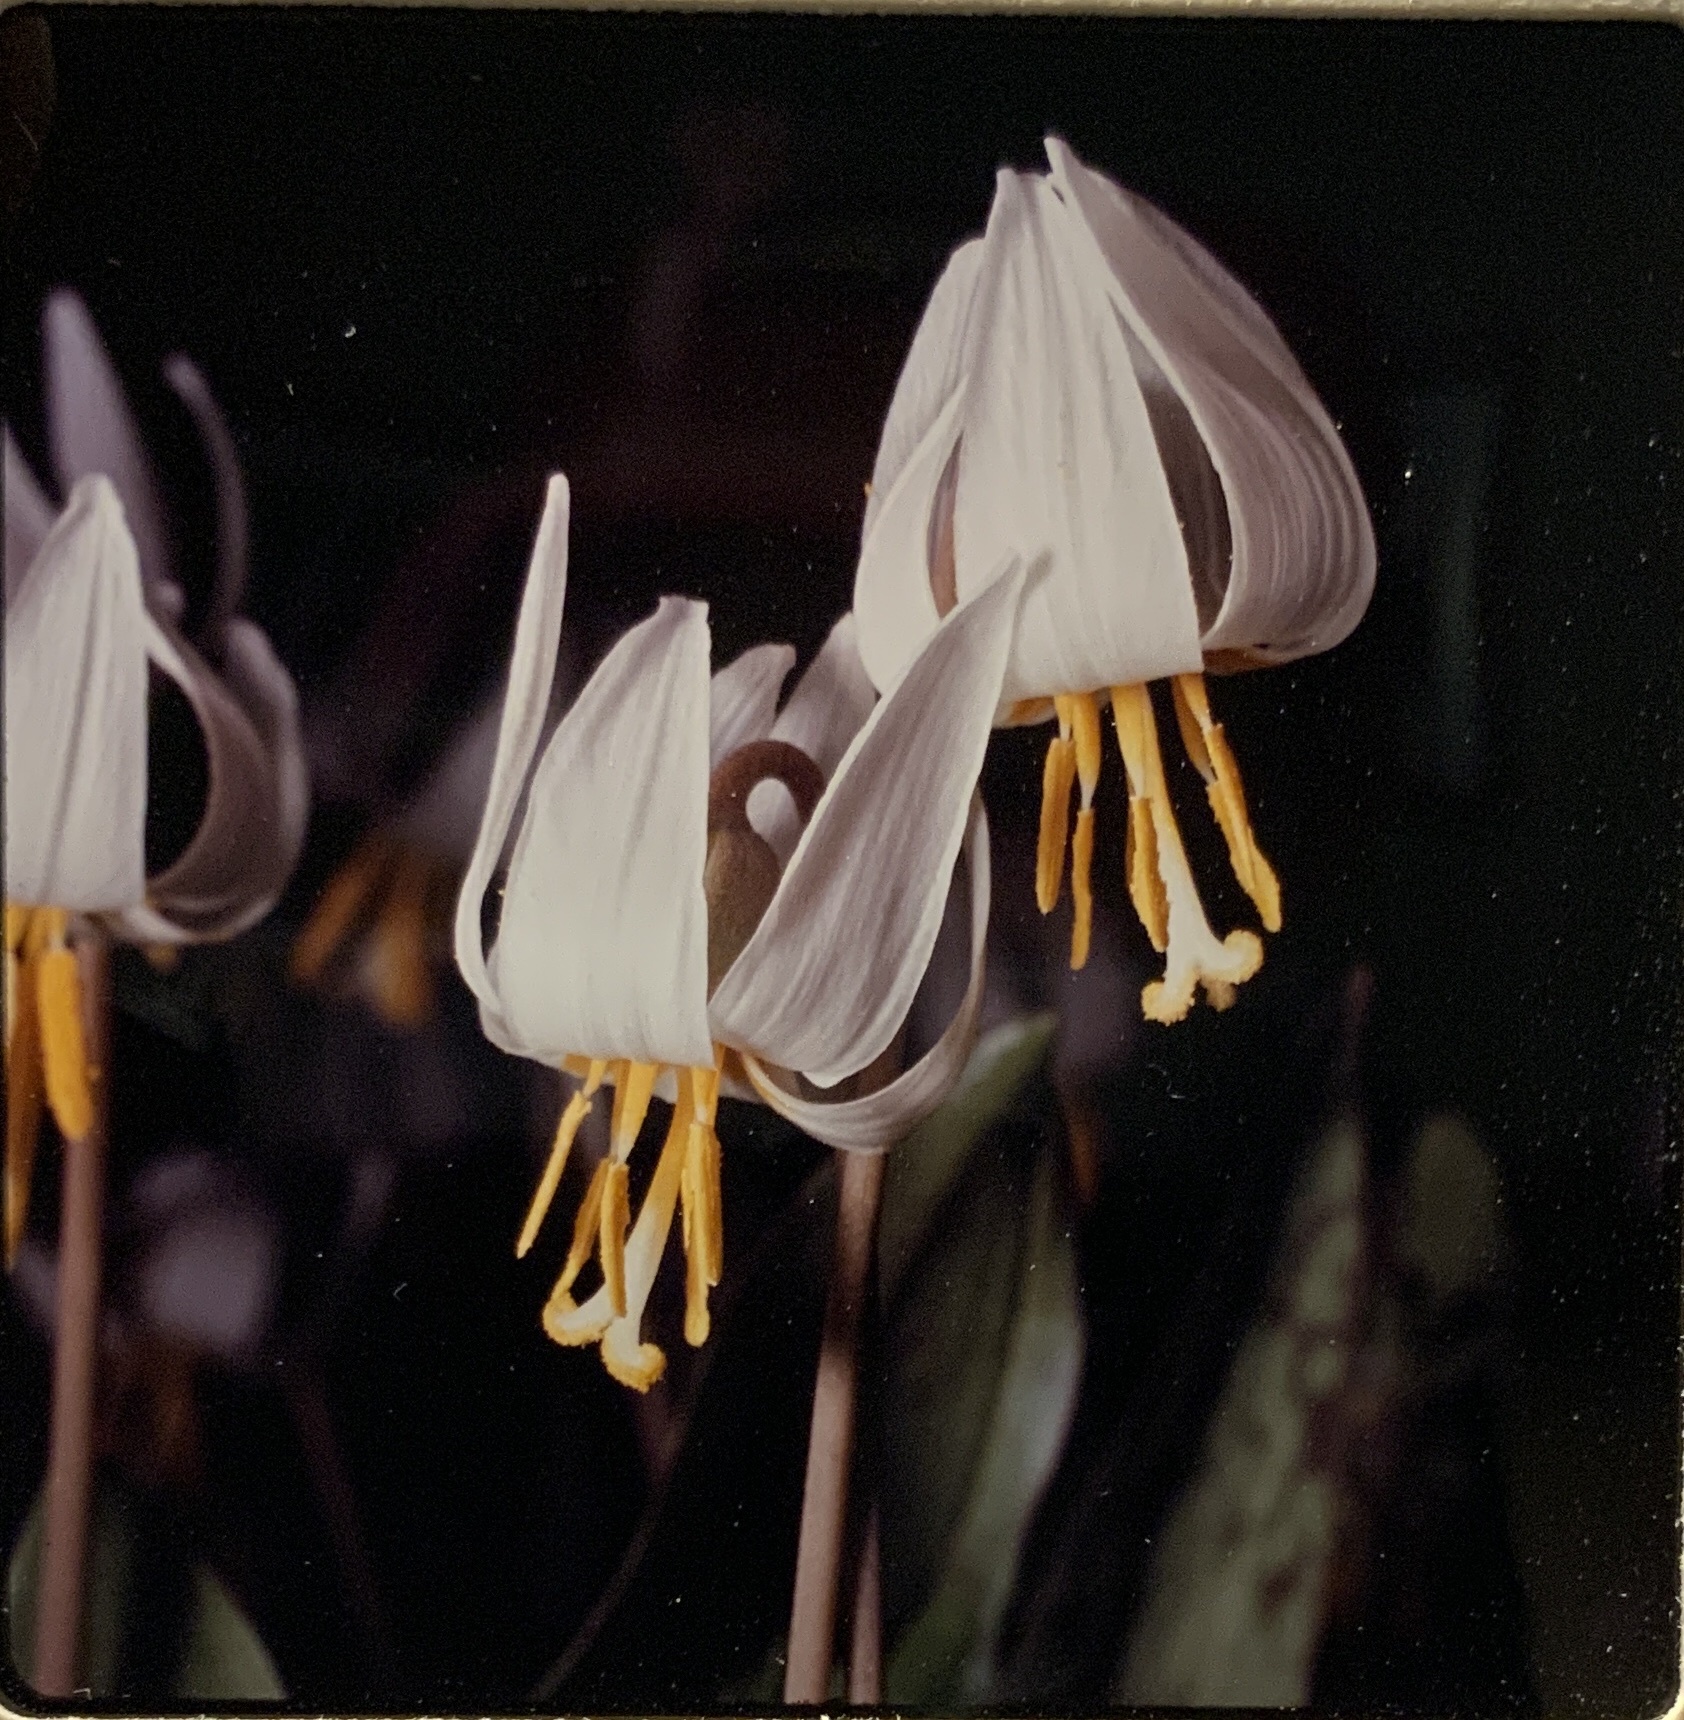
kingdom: Plantae
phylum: Tracheophyta
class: Liliopsida
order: Liliales
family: Liliaceae
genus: Erythronium
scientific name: Erythronium albidum
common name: White trout-lily
